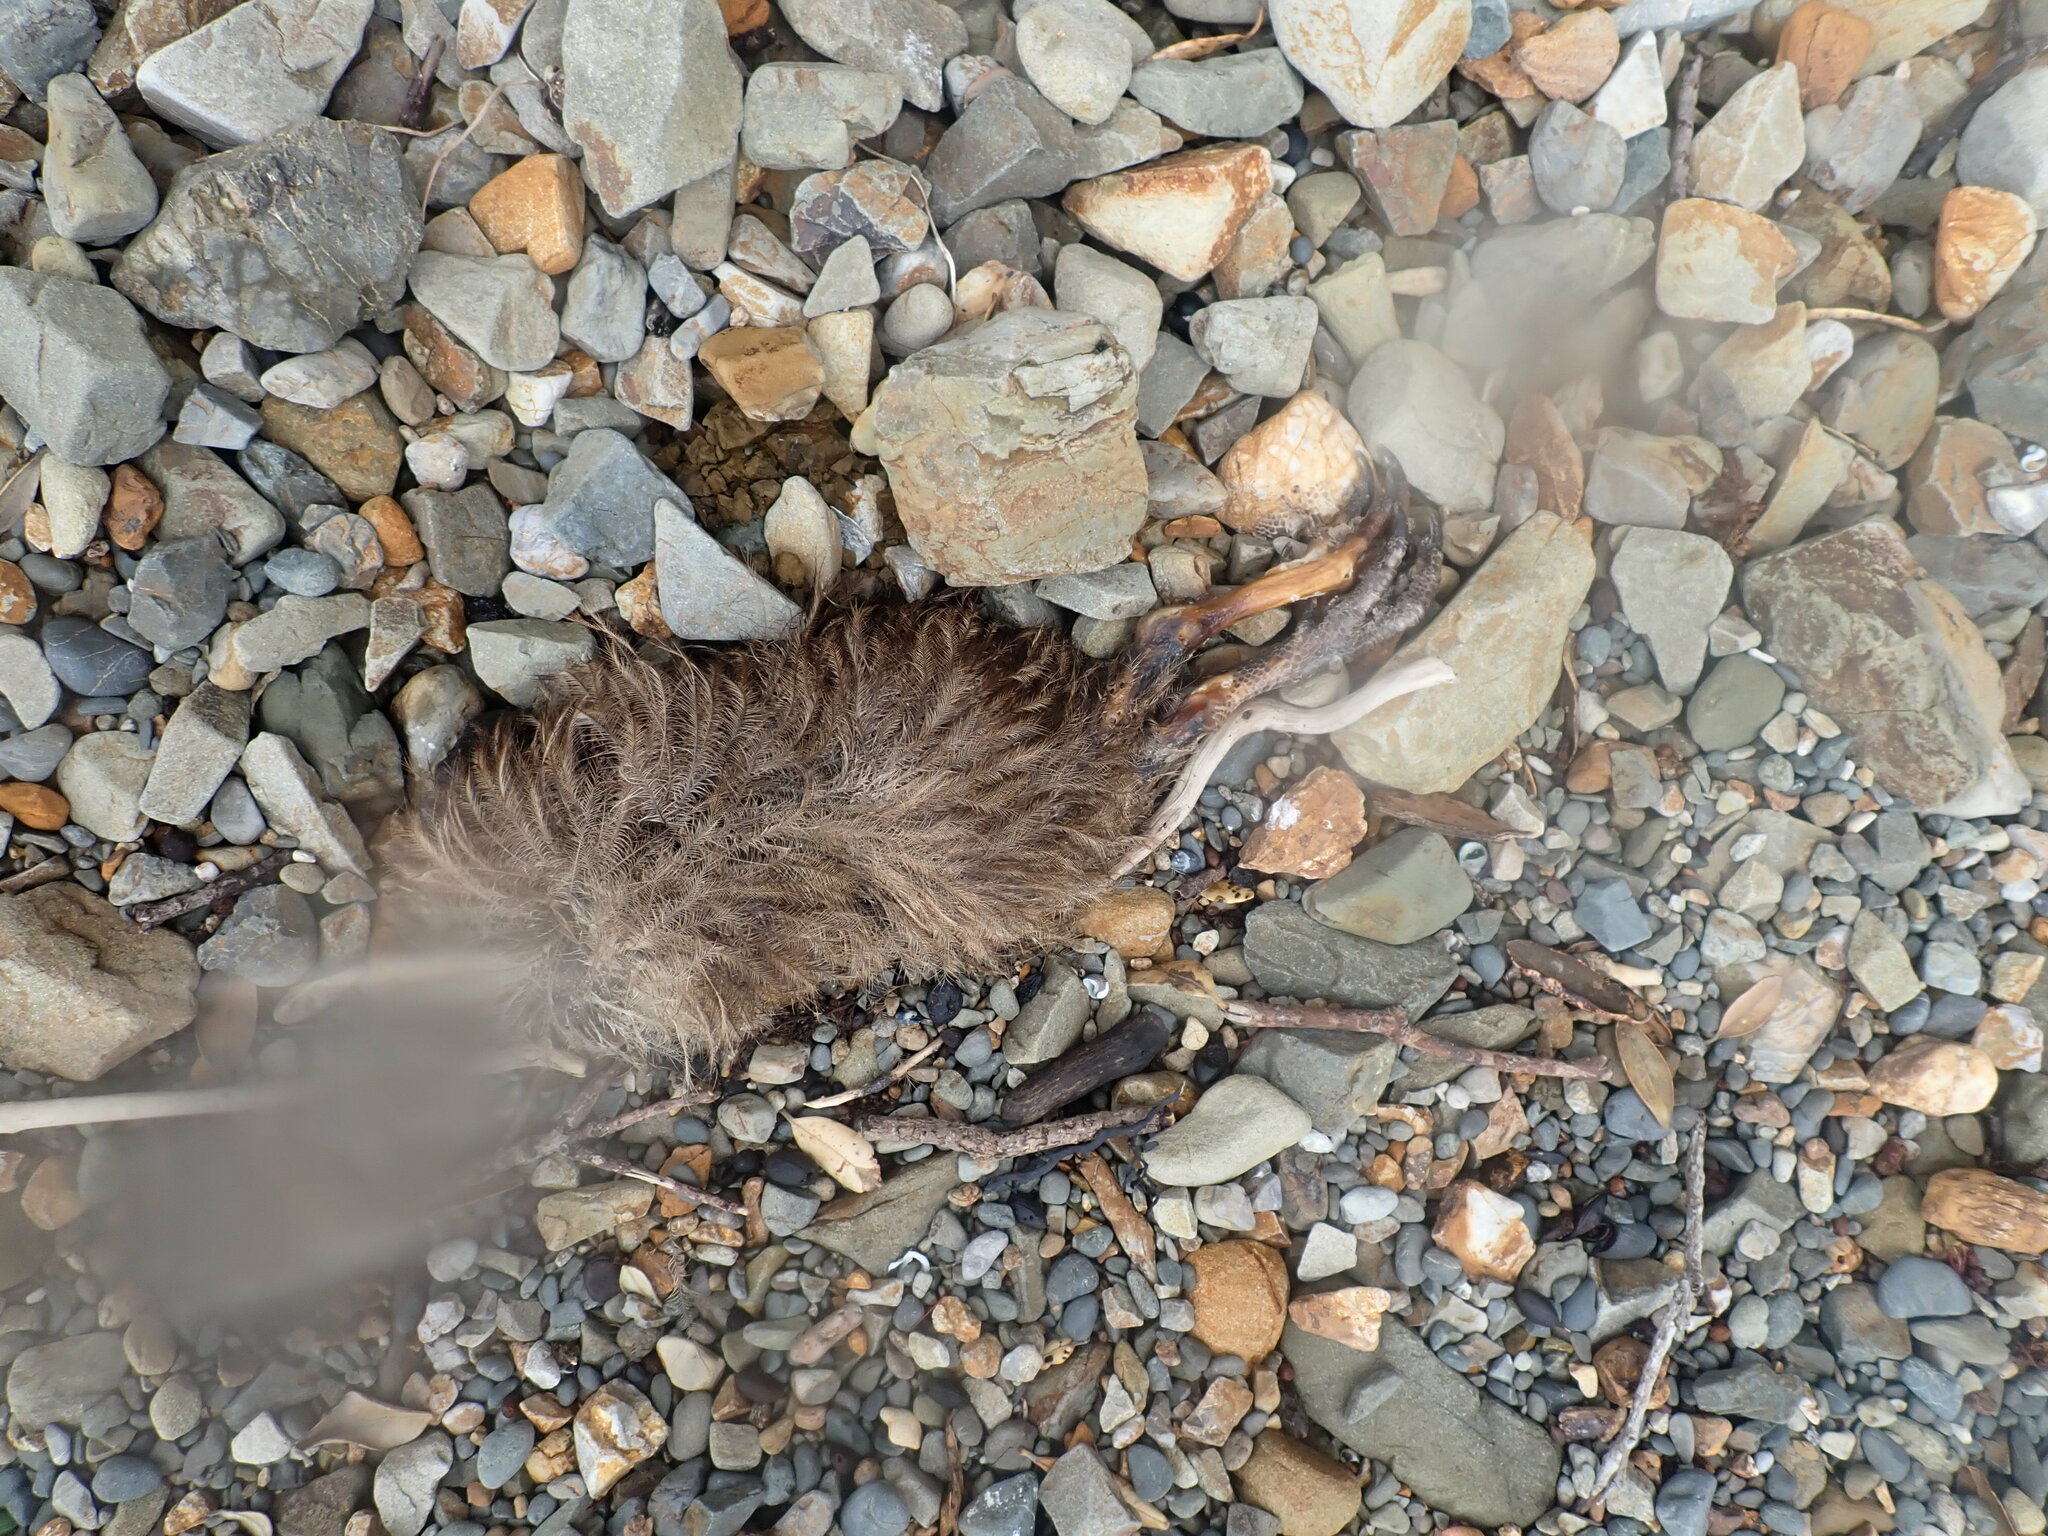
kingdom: Animalia
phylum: Chordata
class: Aves
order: Apterygiformes
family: Apterygidae
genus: Apteryx
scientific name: Apteryx mantelli
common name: North island brown kiwi
